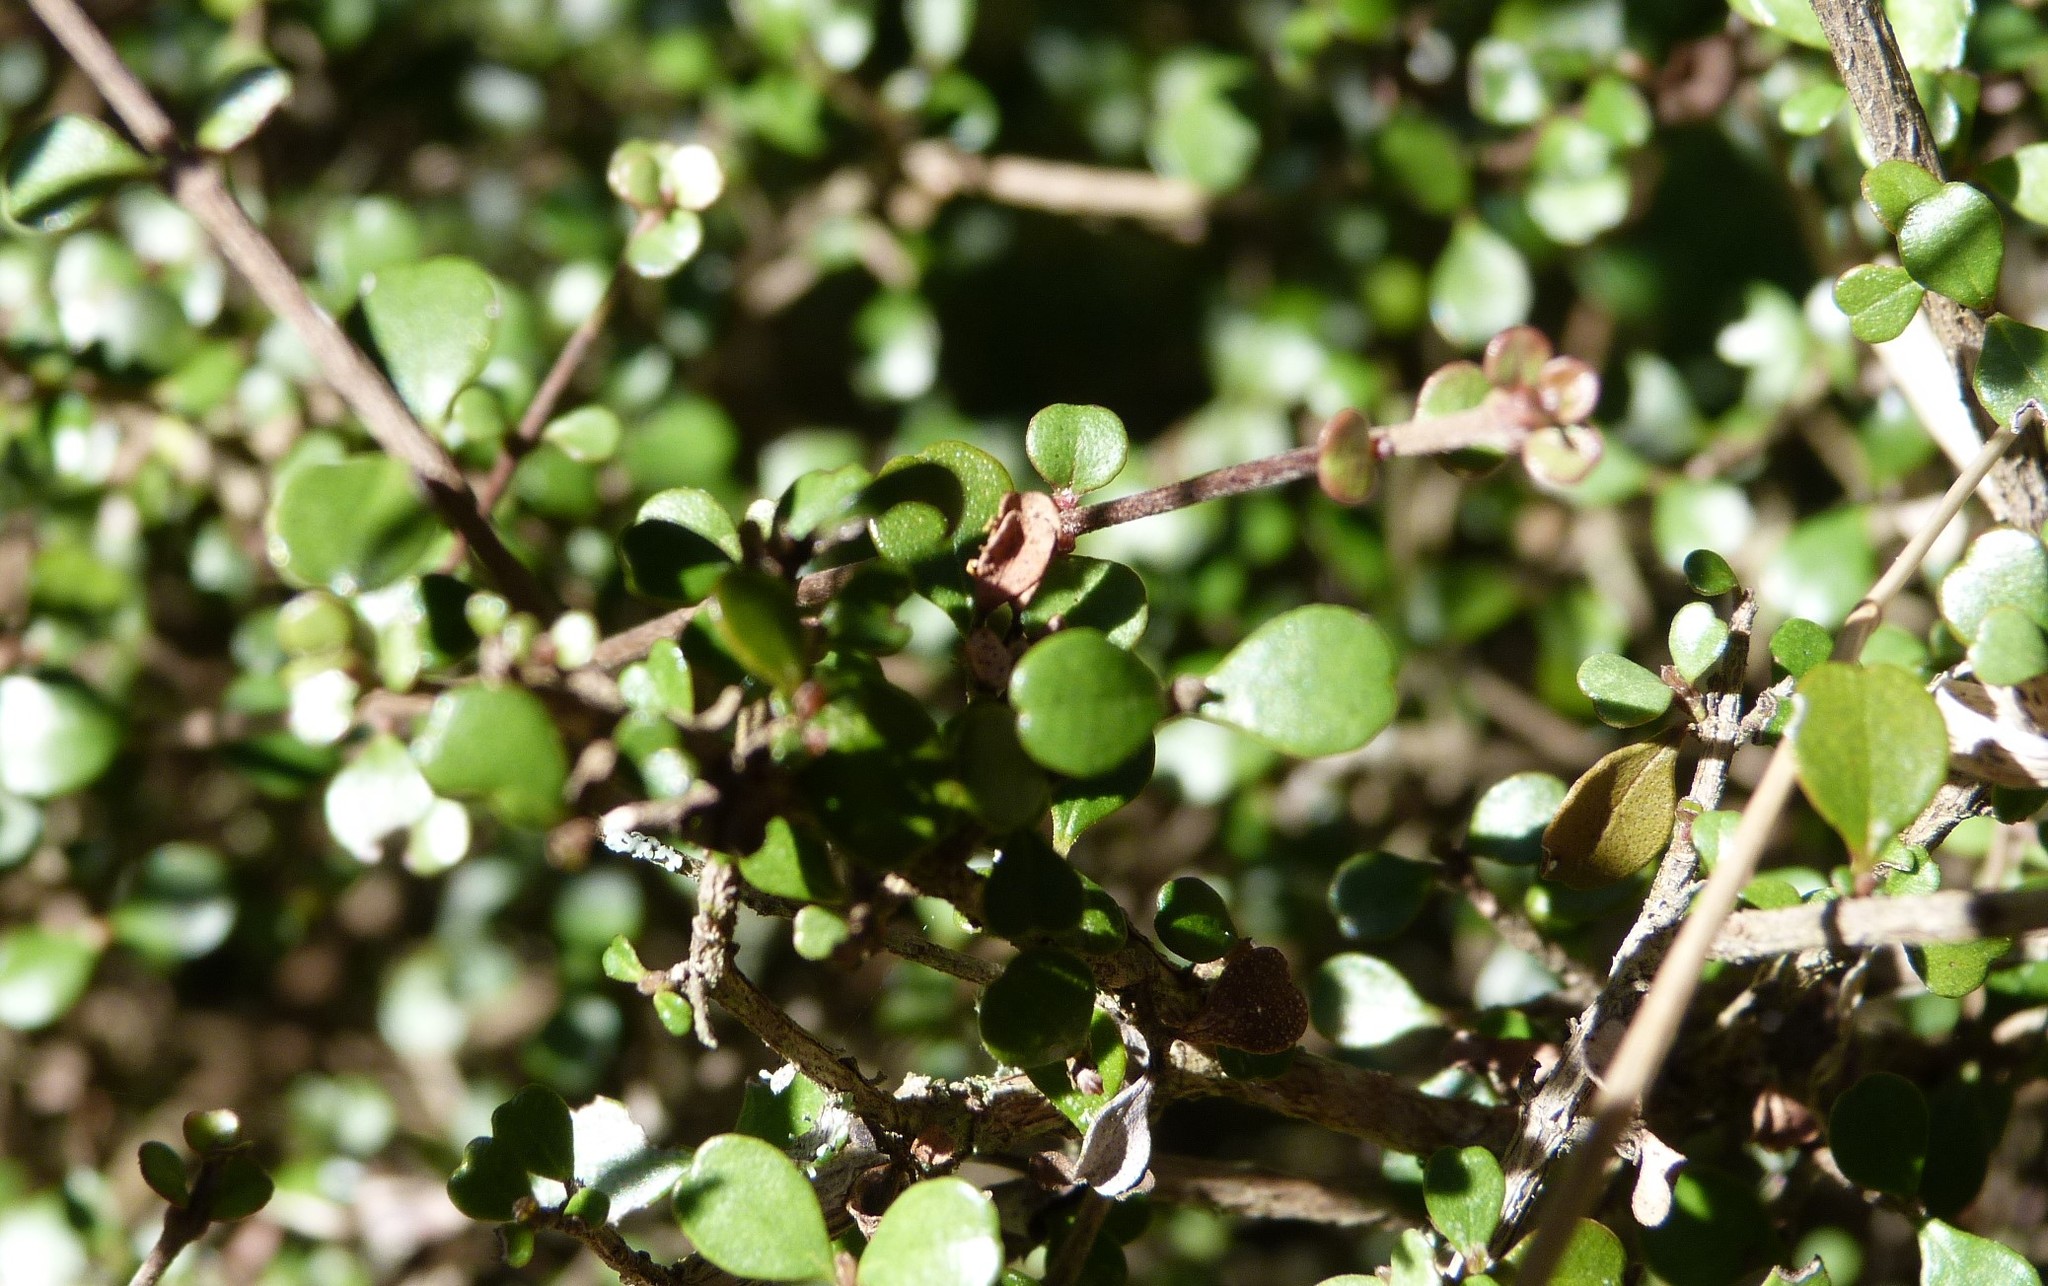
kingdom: Plantae
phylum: Tracheophyta
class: Magnoliopsida
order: Myrtales
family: Myrtaceae
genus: Lophomyrtus
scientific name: Lophomyrtus obcordata
